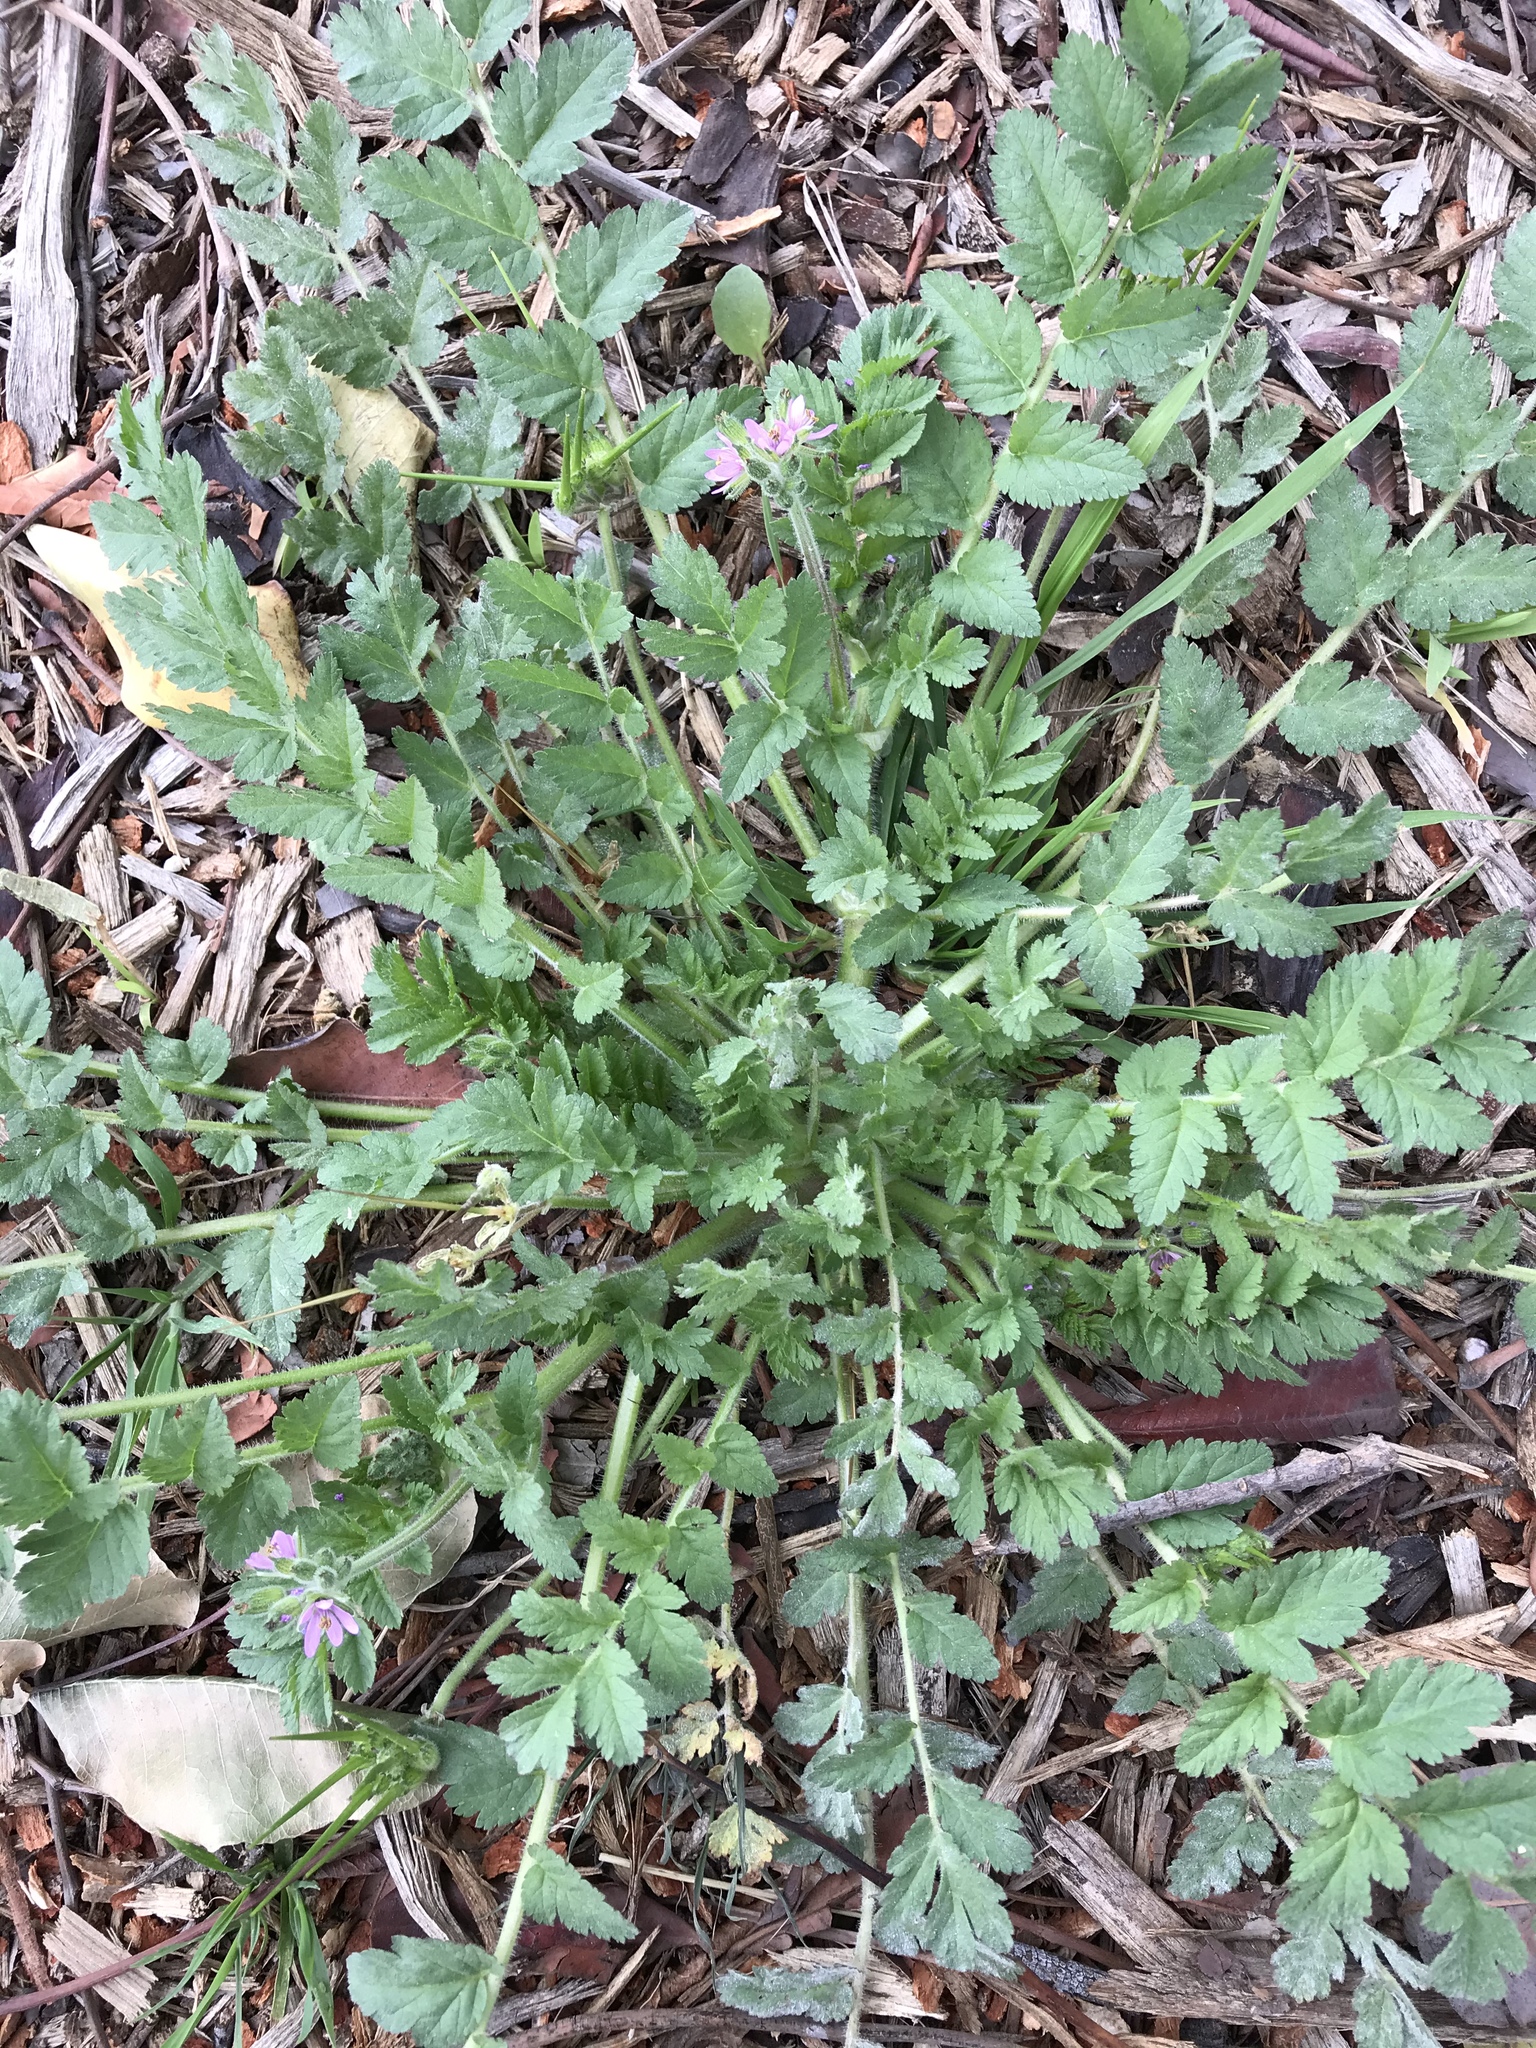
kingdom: Plantae
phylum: Tracheophyta
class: Magnoliopsida
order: Geraniales
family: Geraniaceae
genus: Erodium
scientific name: Erodium moschatum
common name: Musk stork's-bill
